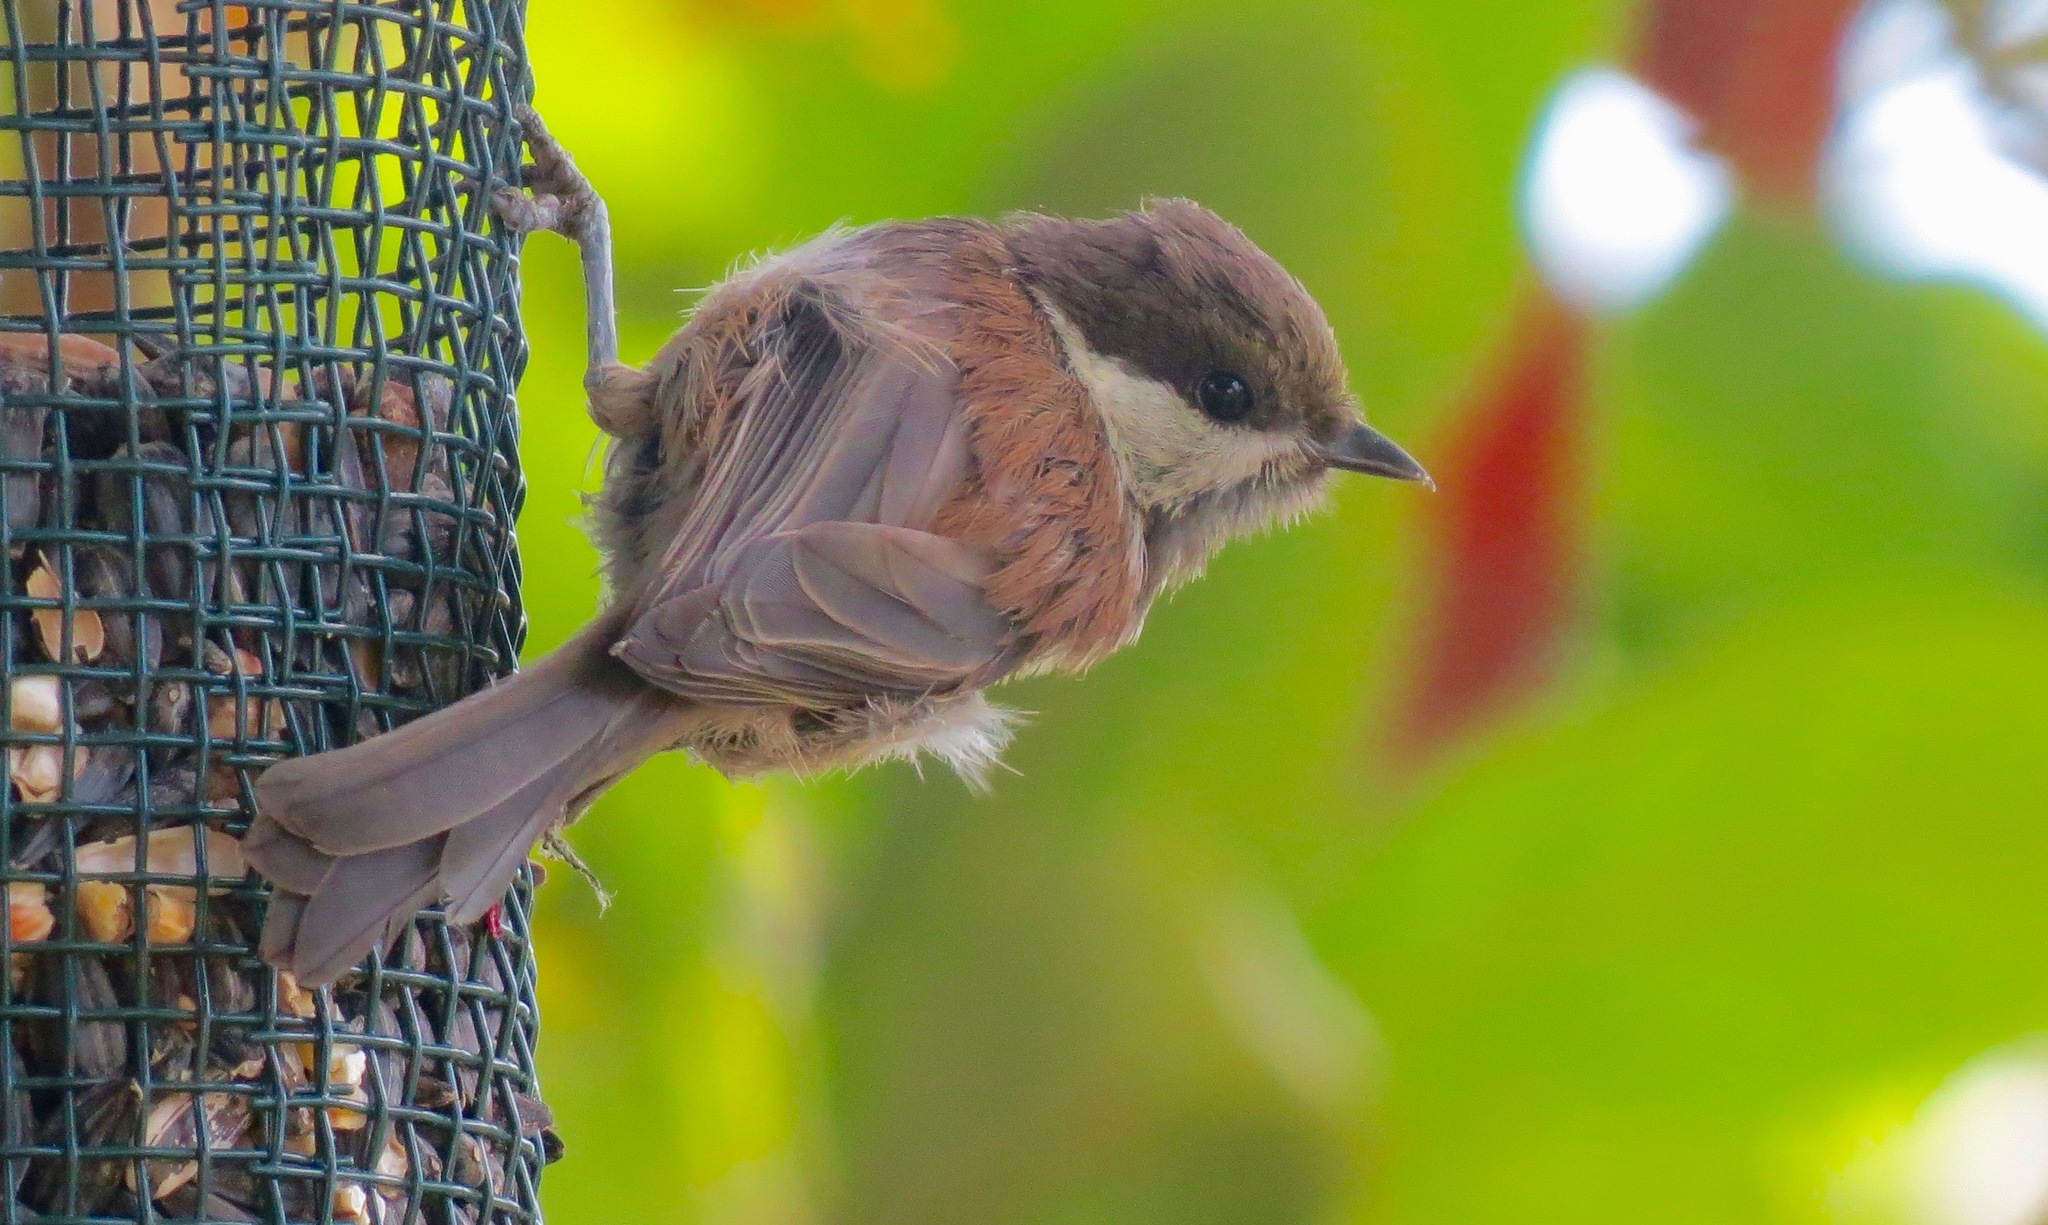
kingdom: Animalia
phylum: Chordata
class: Aves
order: Passeriformes
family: Paridae
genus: Poecile
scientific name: Poecile rufescens
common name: Chestnut-backed chickadee
